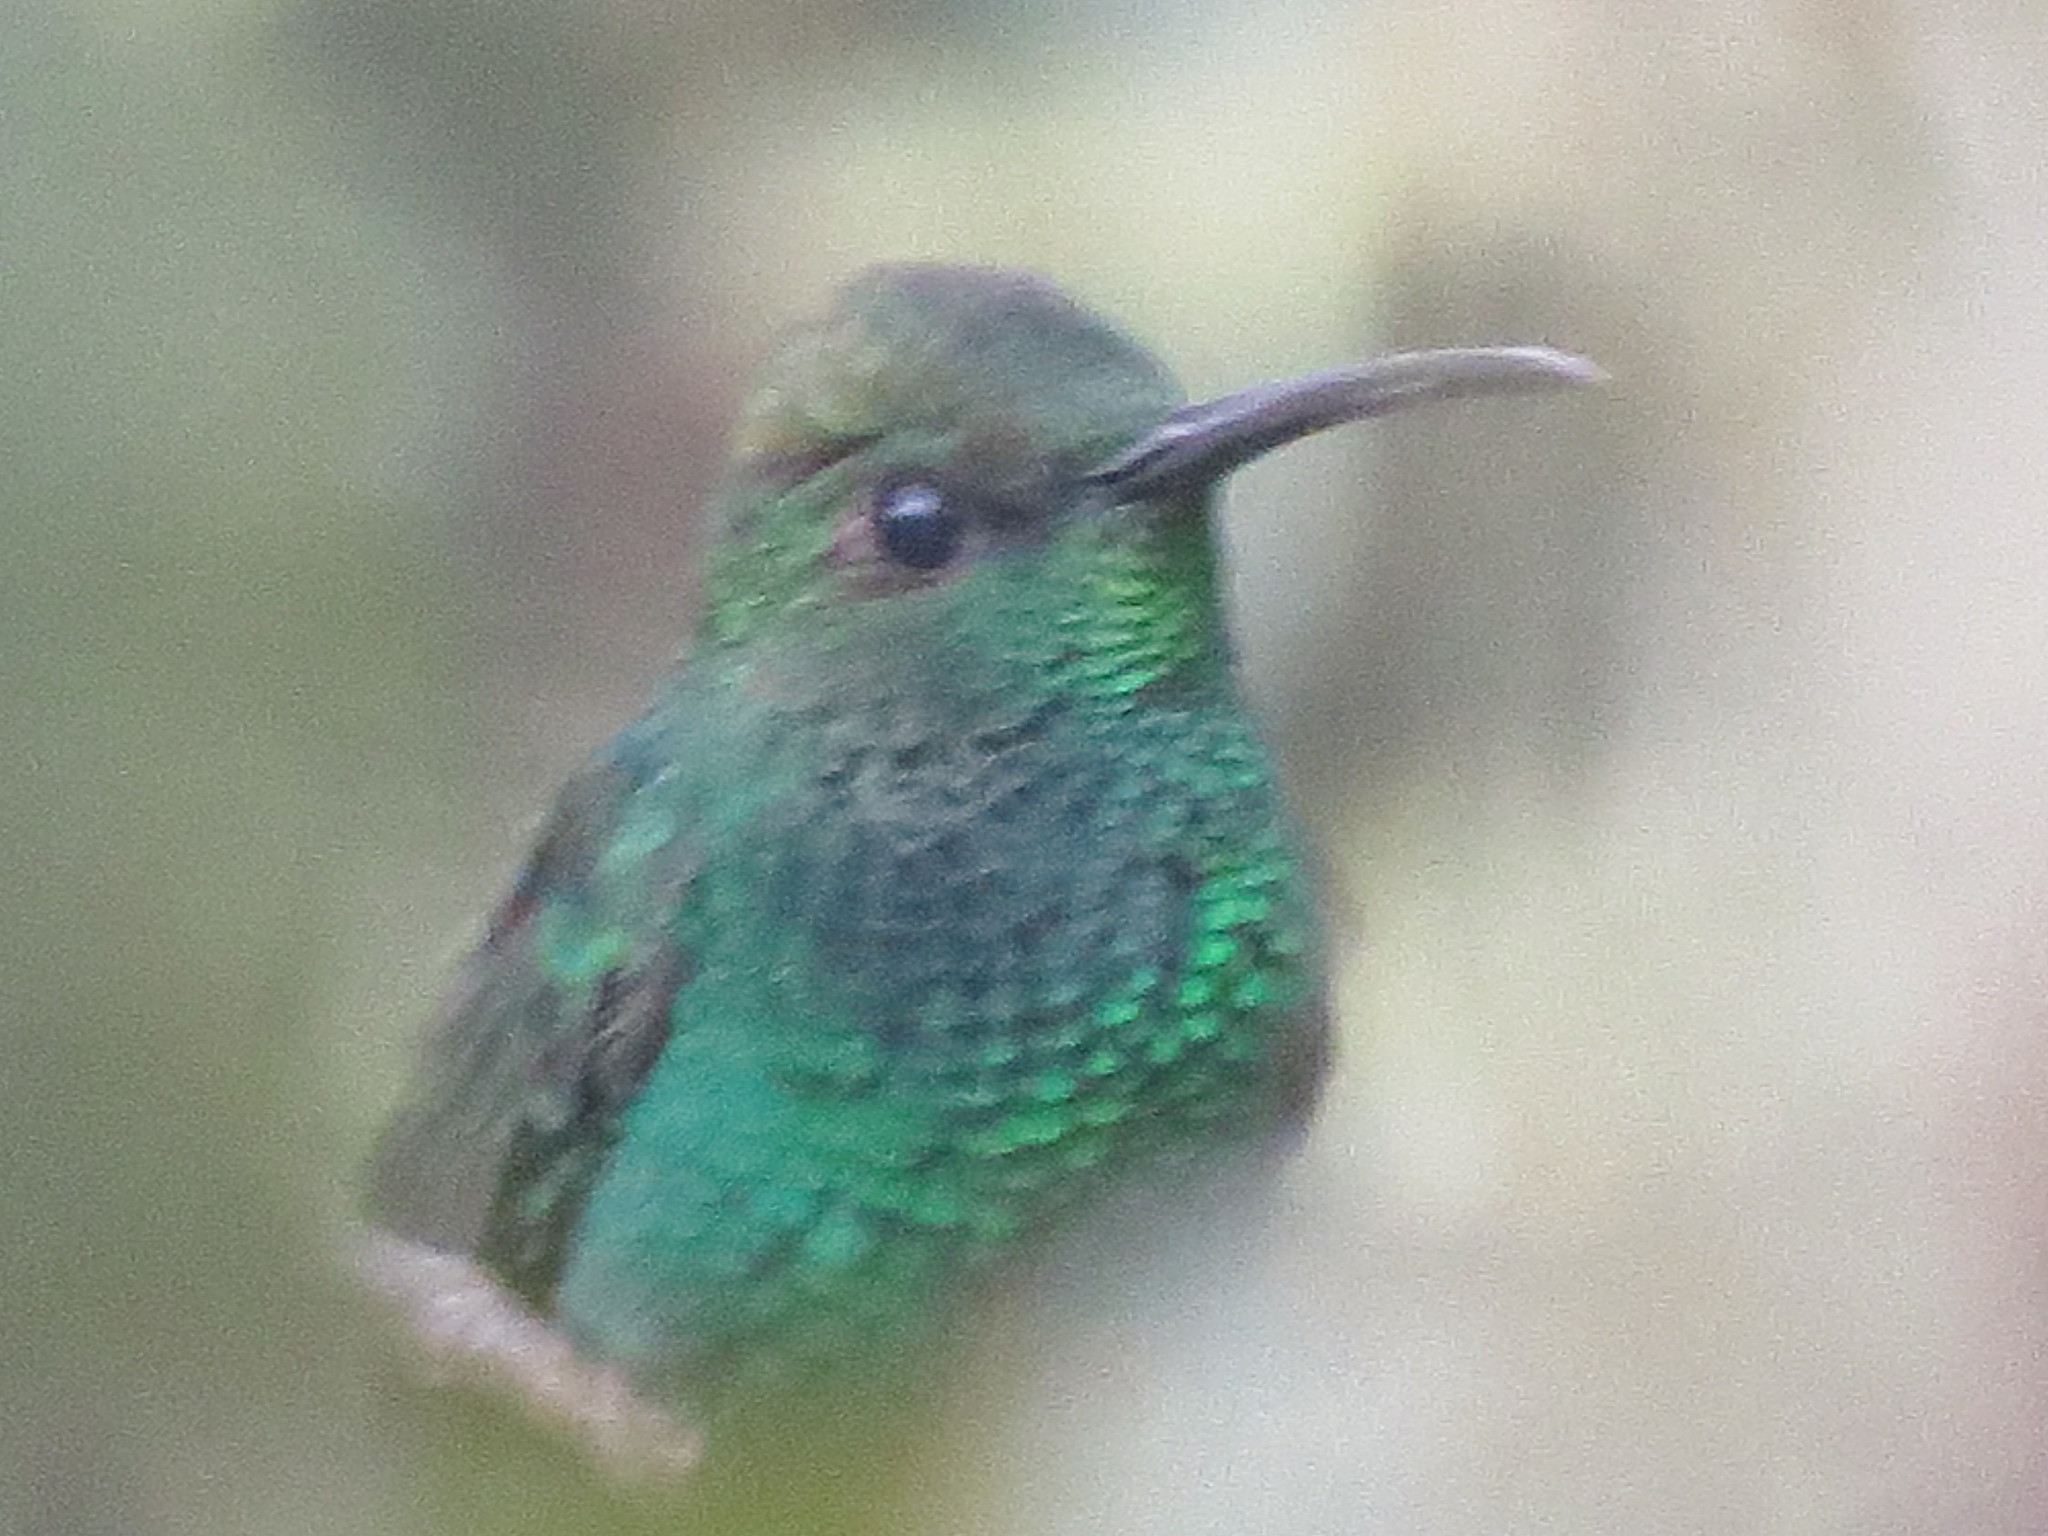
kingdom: Animalia
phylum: Chordata
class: Aves
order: Apodiformes
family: Trochilidae
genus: Chalybura
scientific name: Chalybura buffonii
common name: White-vented plumeleteer
